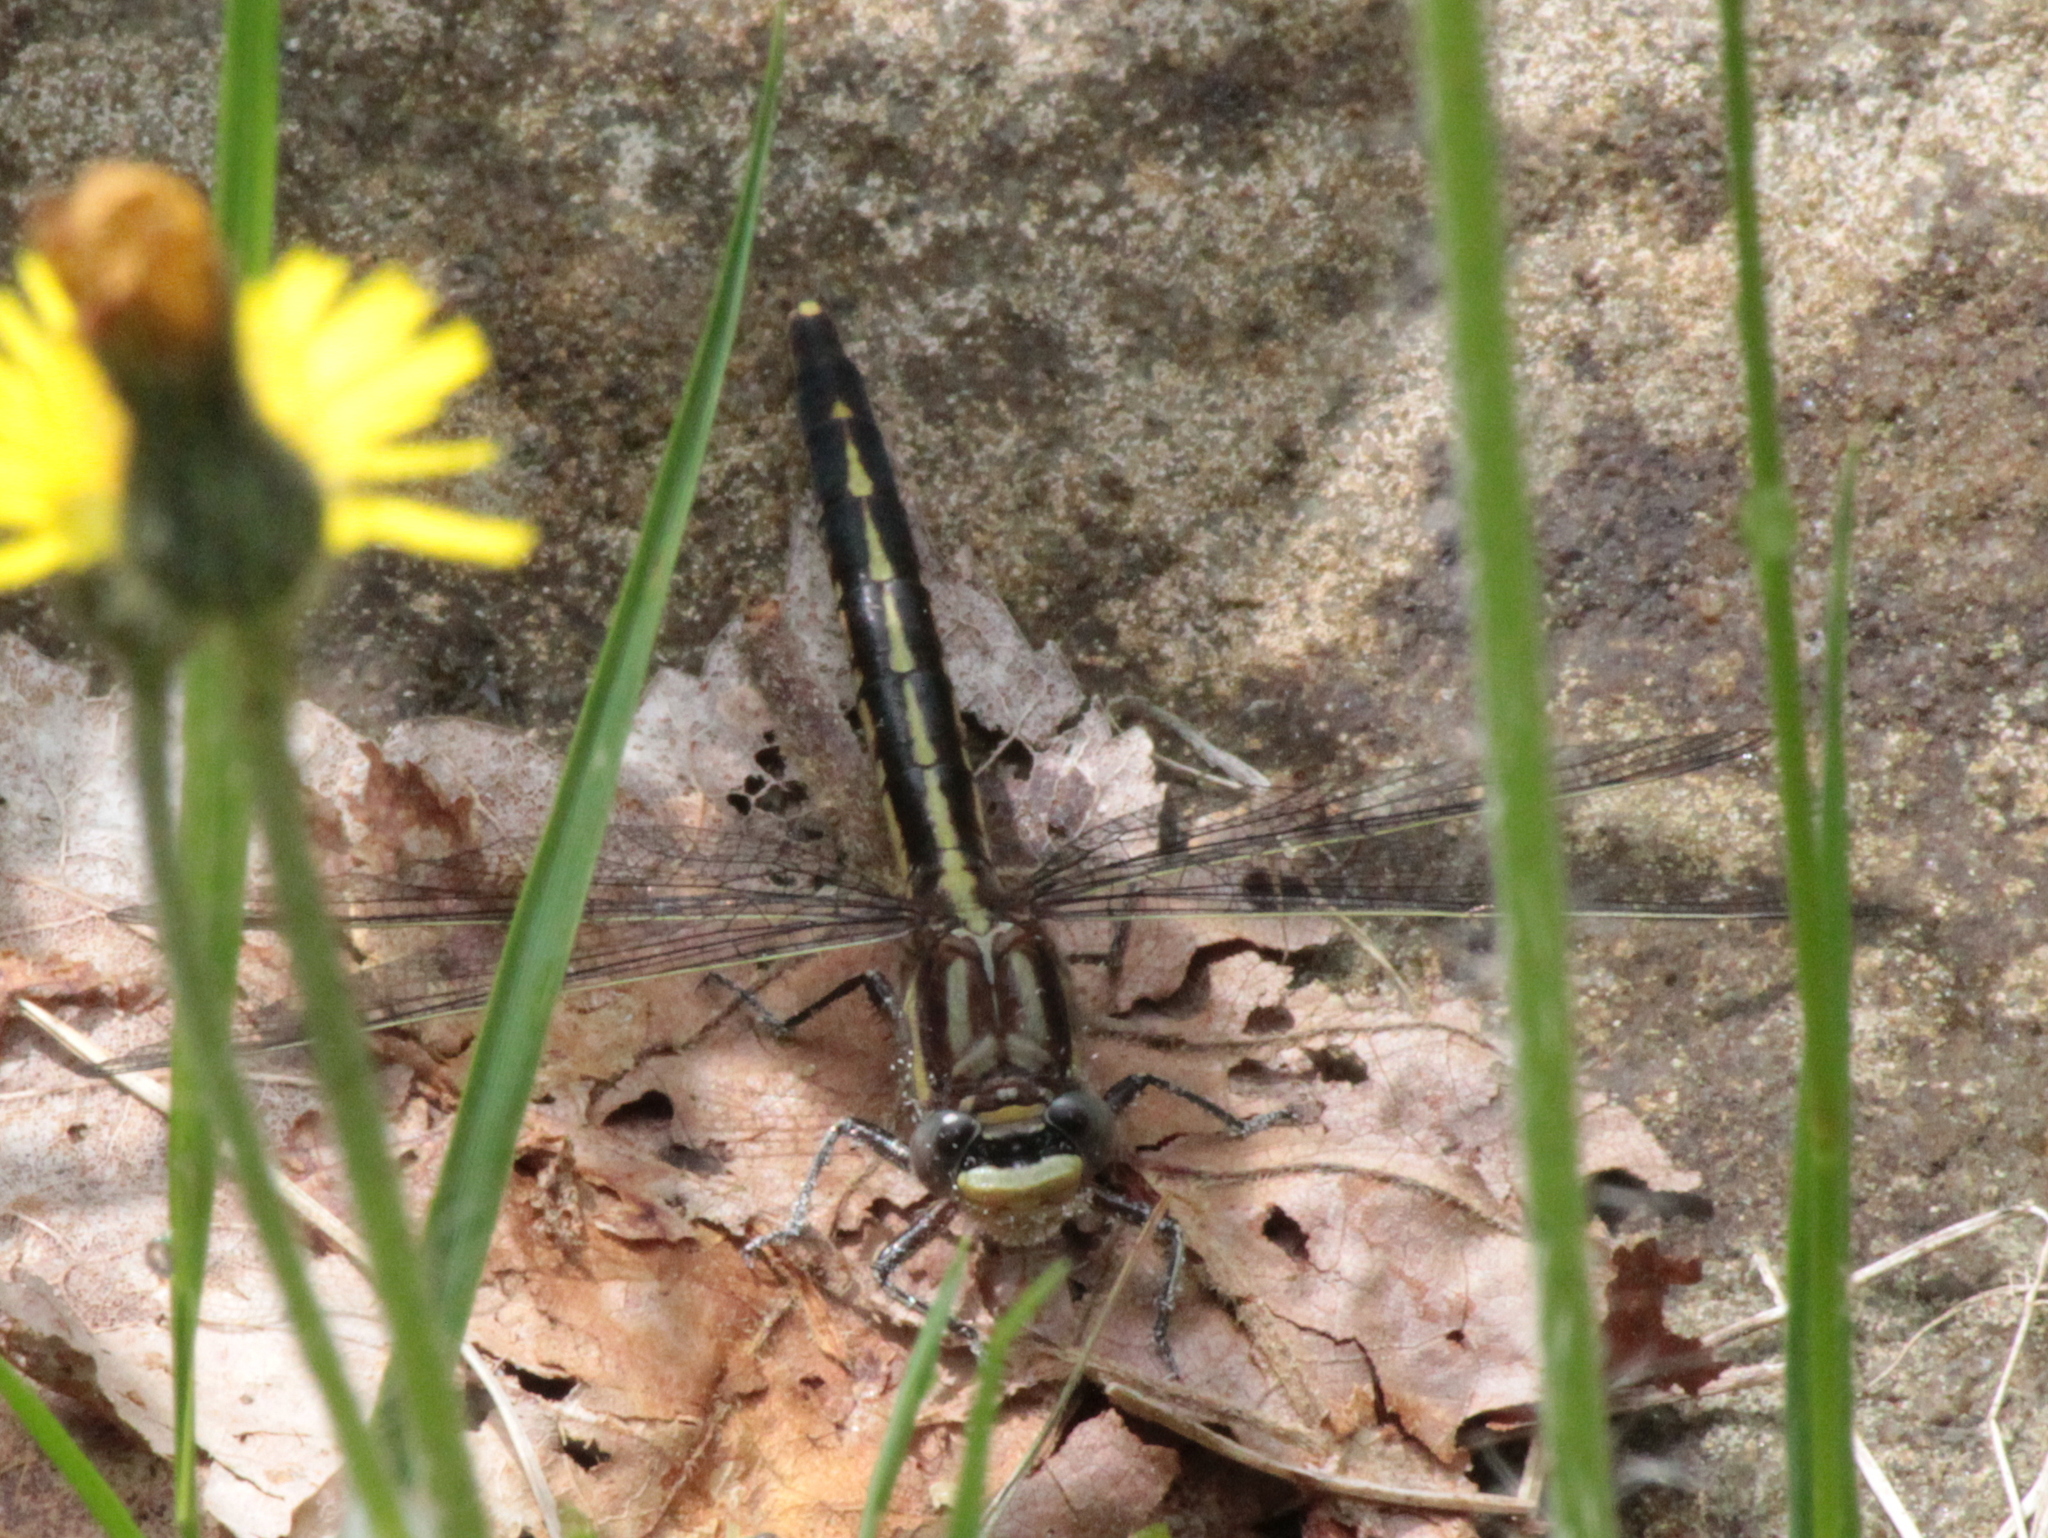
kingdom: Animalia
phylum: Arthropoda
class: Insecta
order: Odonata
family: Gomphidae
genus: Phanogomphus
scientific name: Phanogomphus spicatus
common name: Dusky clubtail
